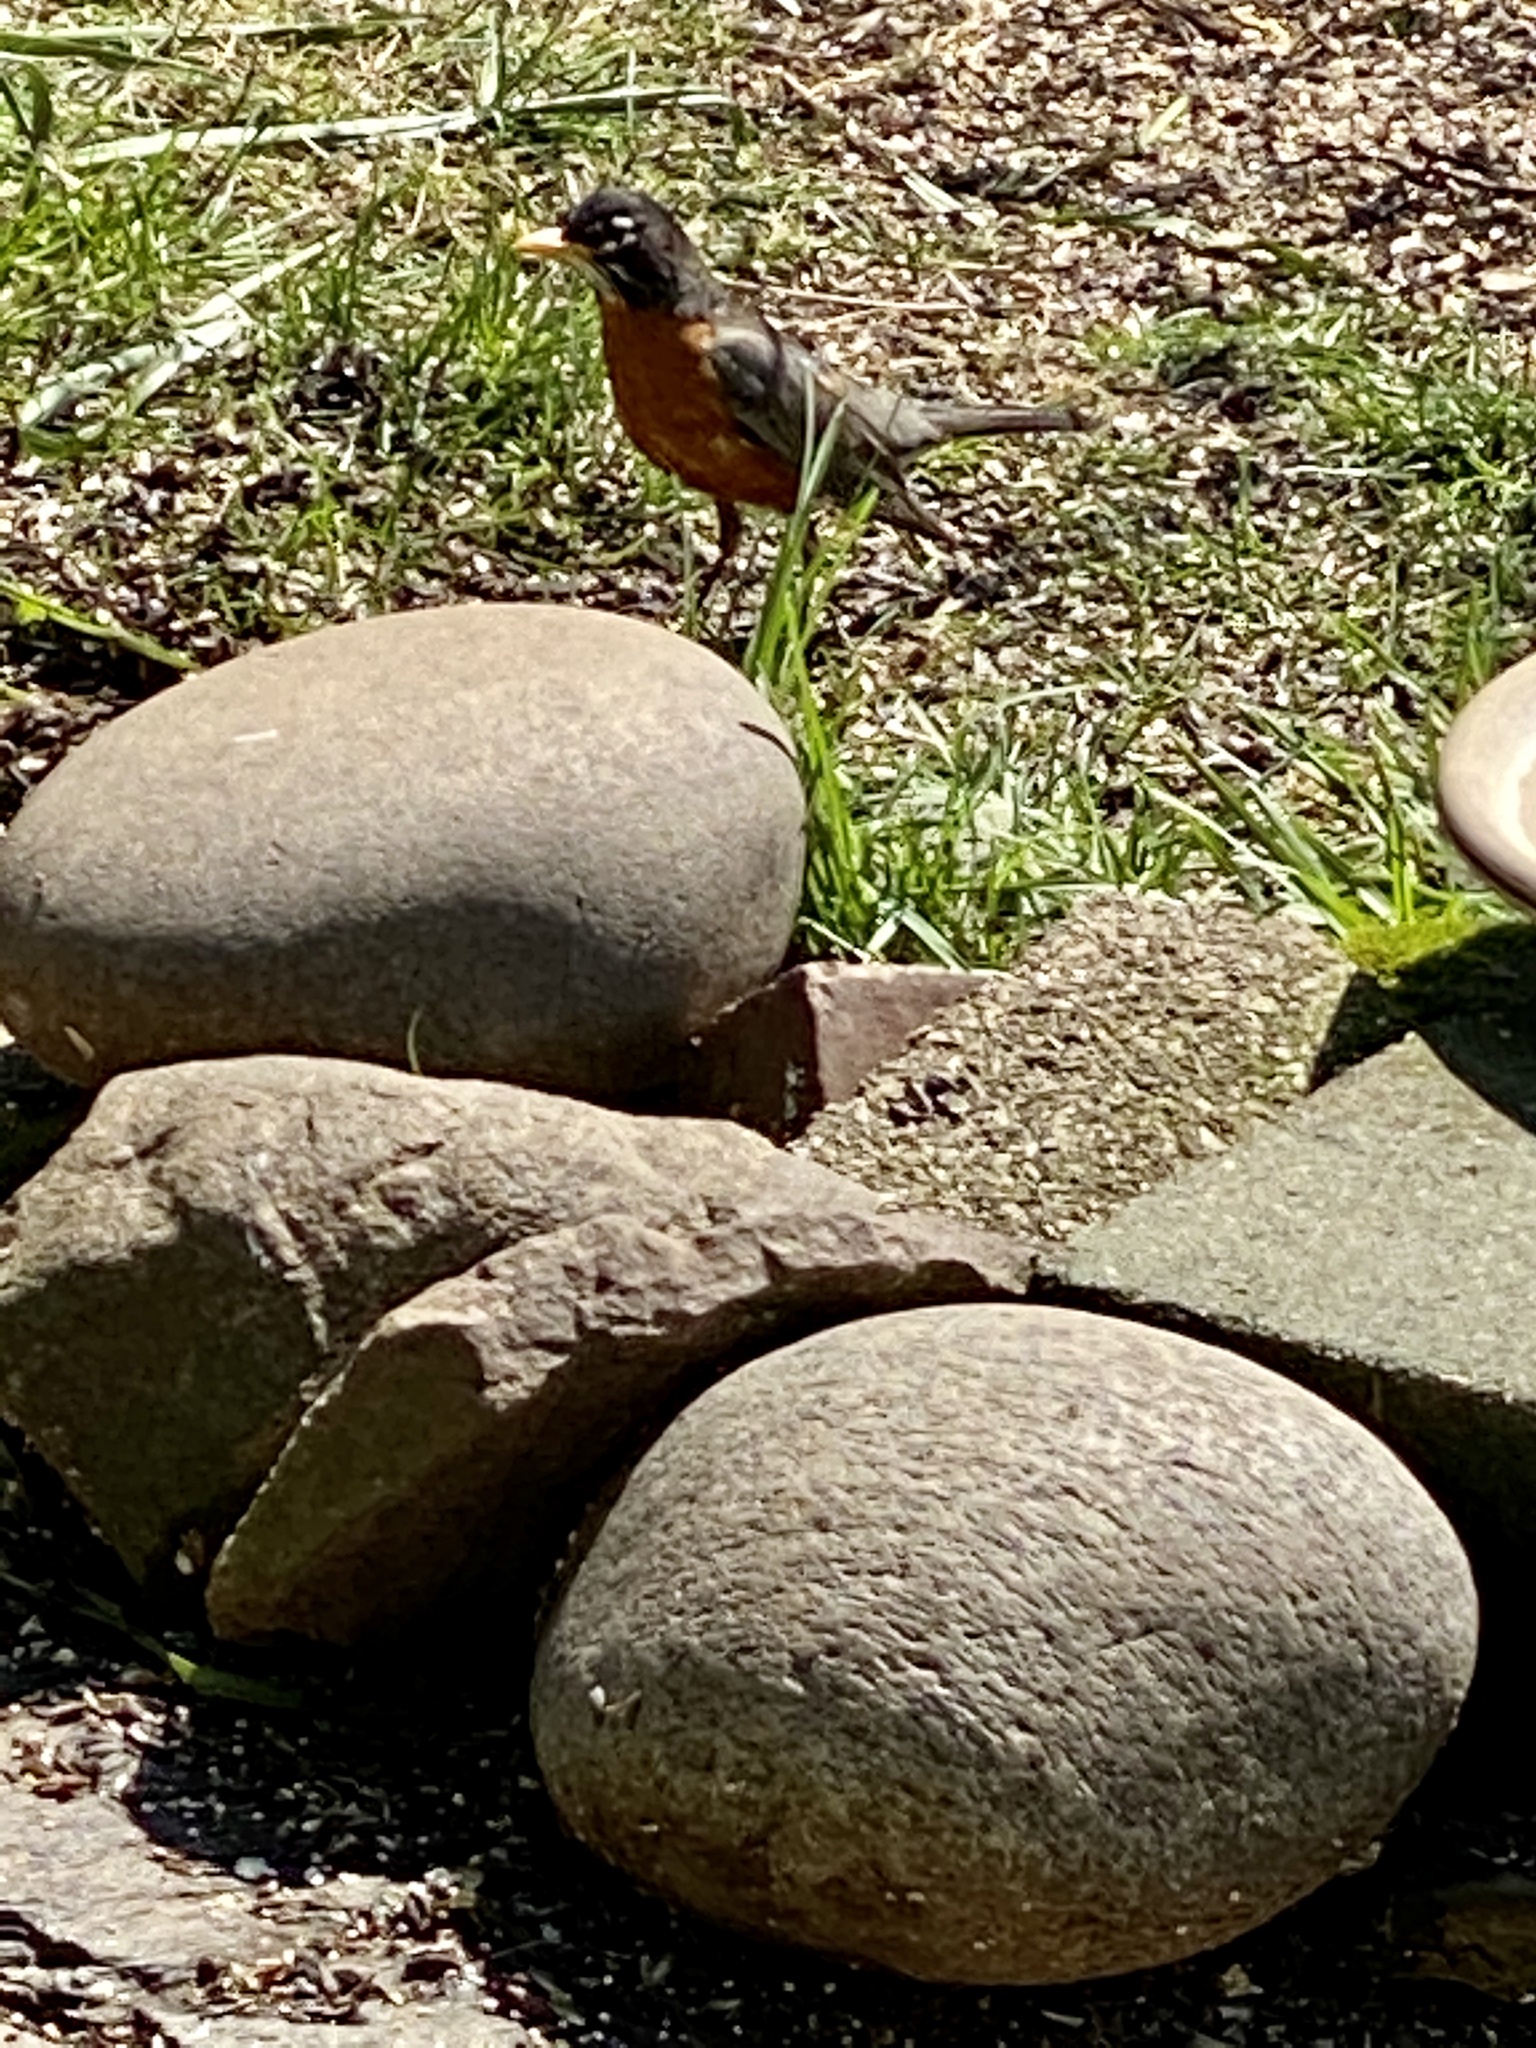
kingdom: Animalia
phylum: Chordata
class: Aves
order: Passeriformes
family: Turdidae
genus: Turdus
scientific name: Turdus migratorius
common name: American robin
